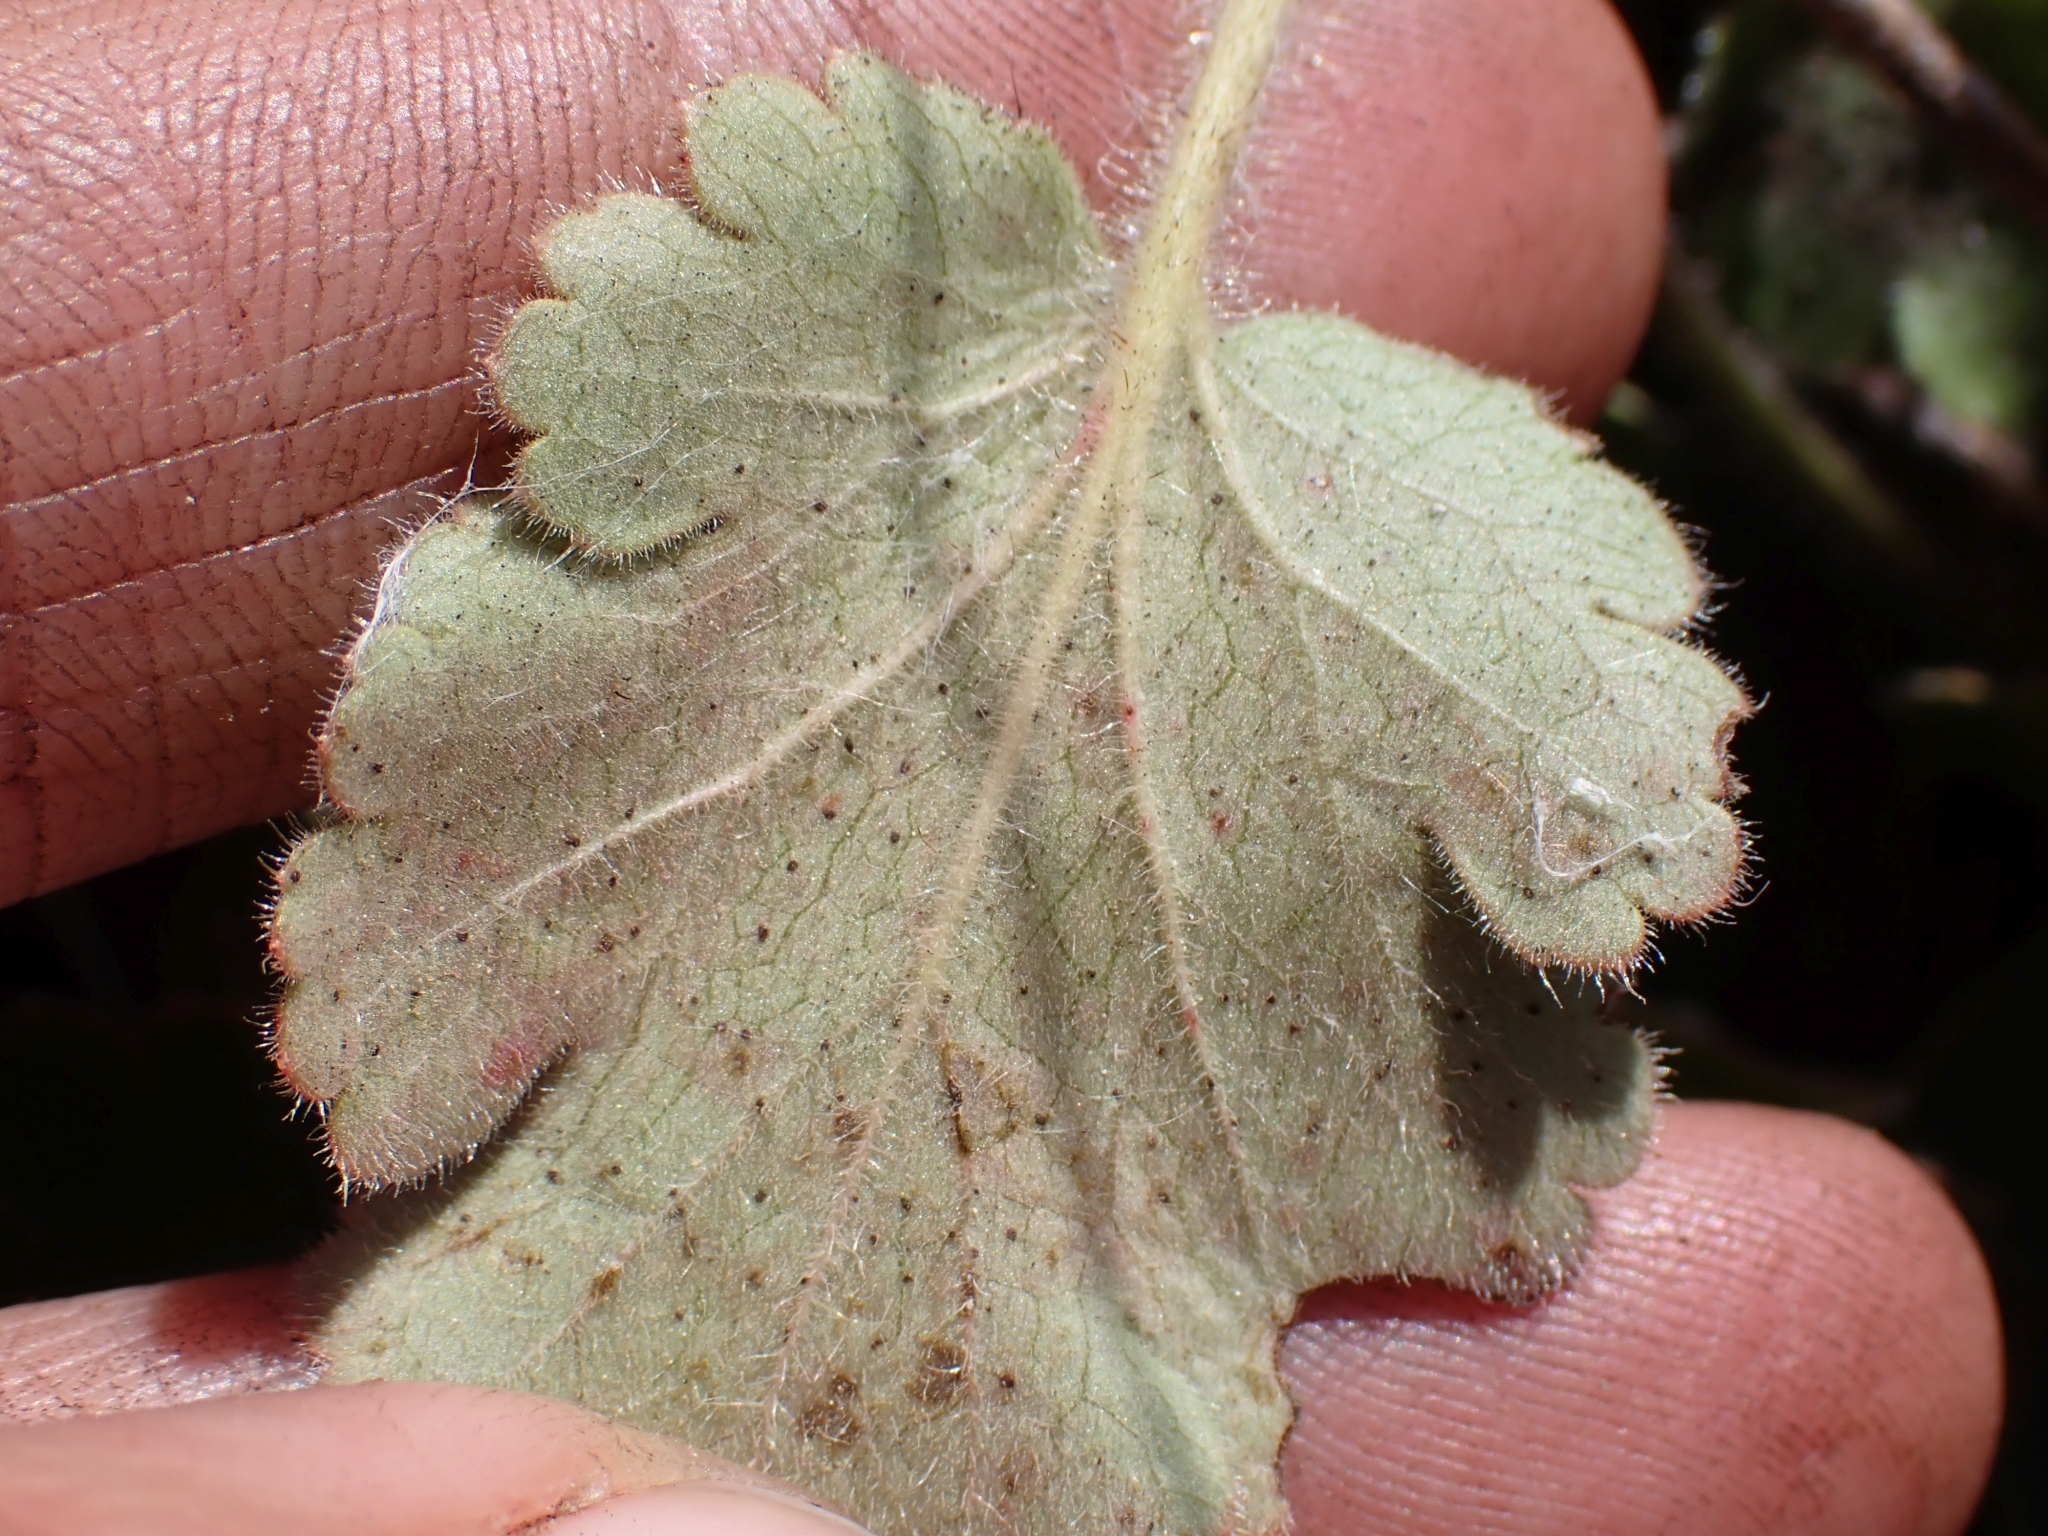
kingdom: Plantae
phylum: Tracheophyta
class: Magnoliopsida
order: Saxifragales
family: Saxifragaceae
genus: Heuchera
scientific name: Heuchera cylindrica
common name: Mat alumroot
